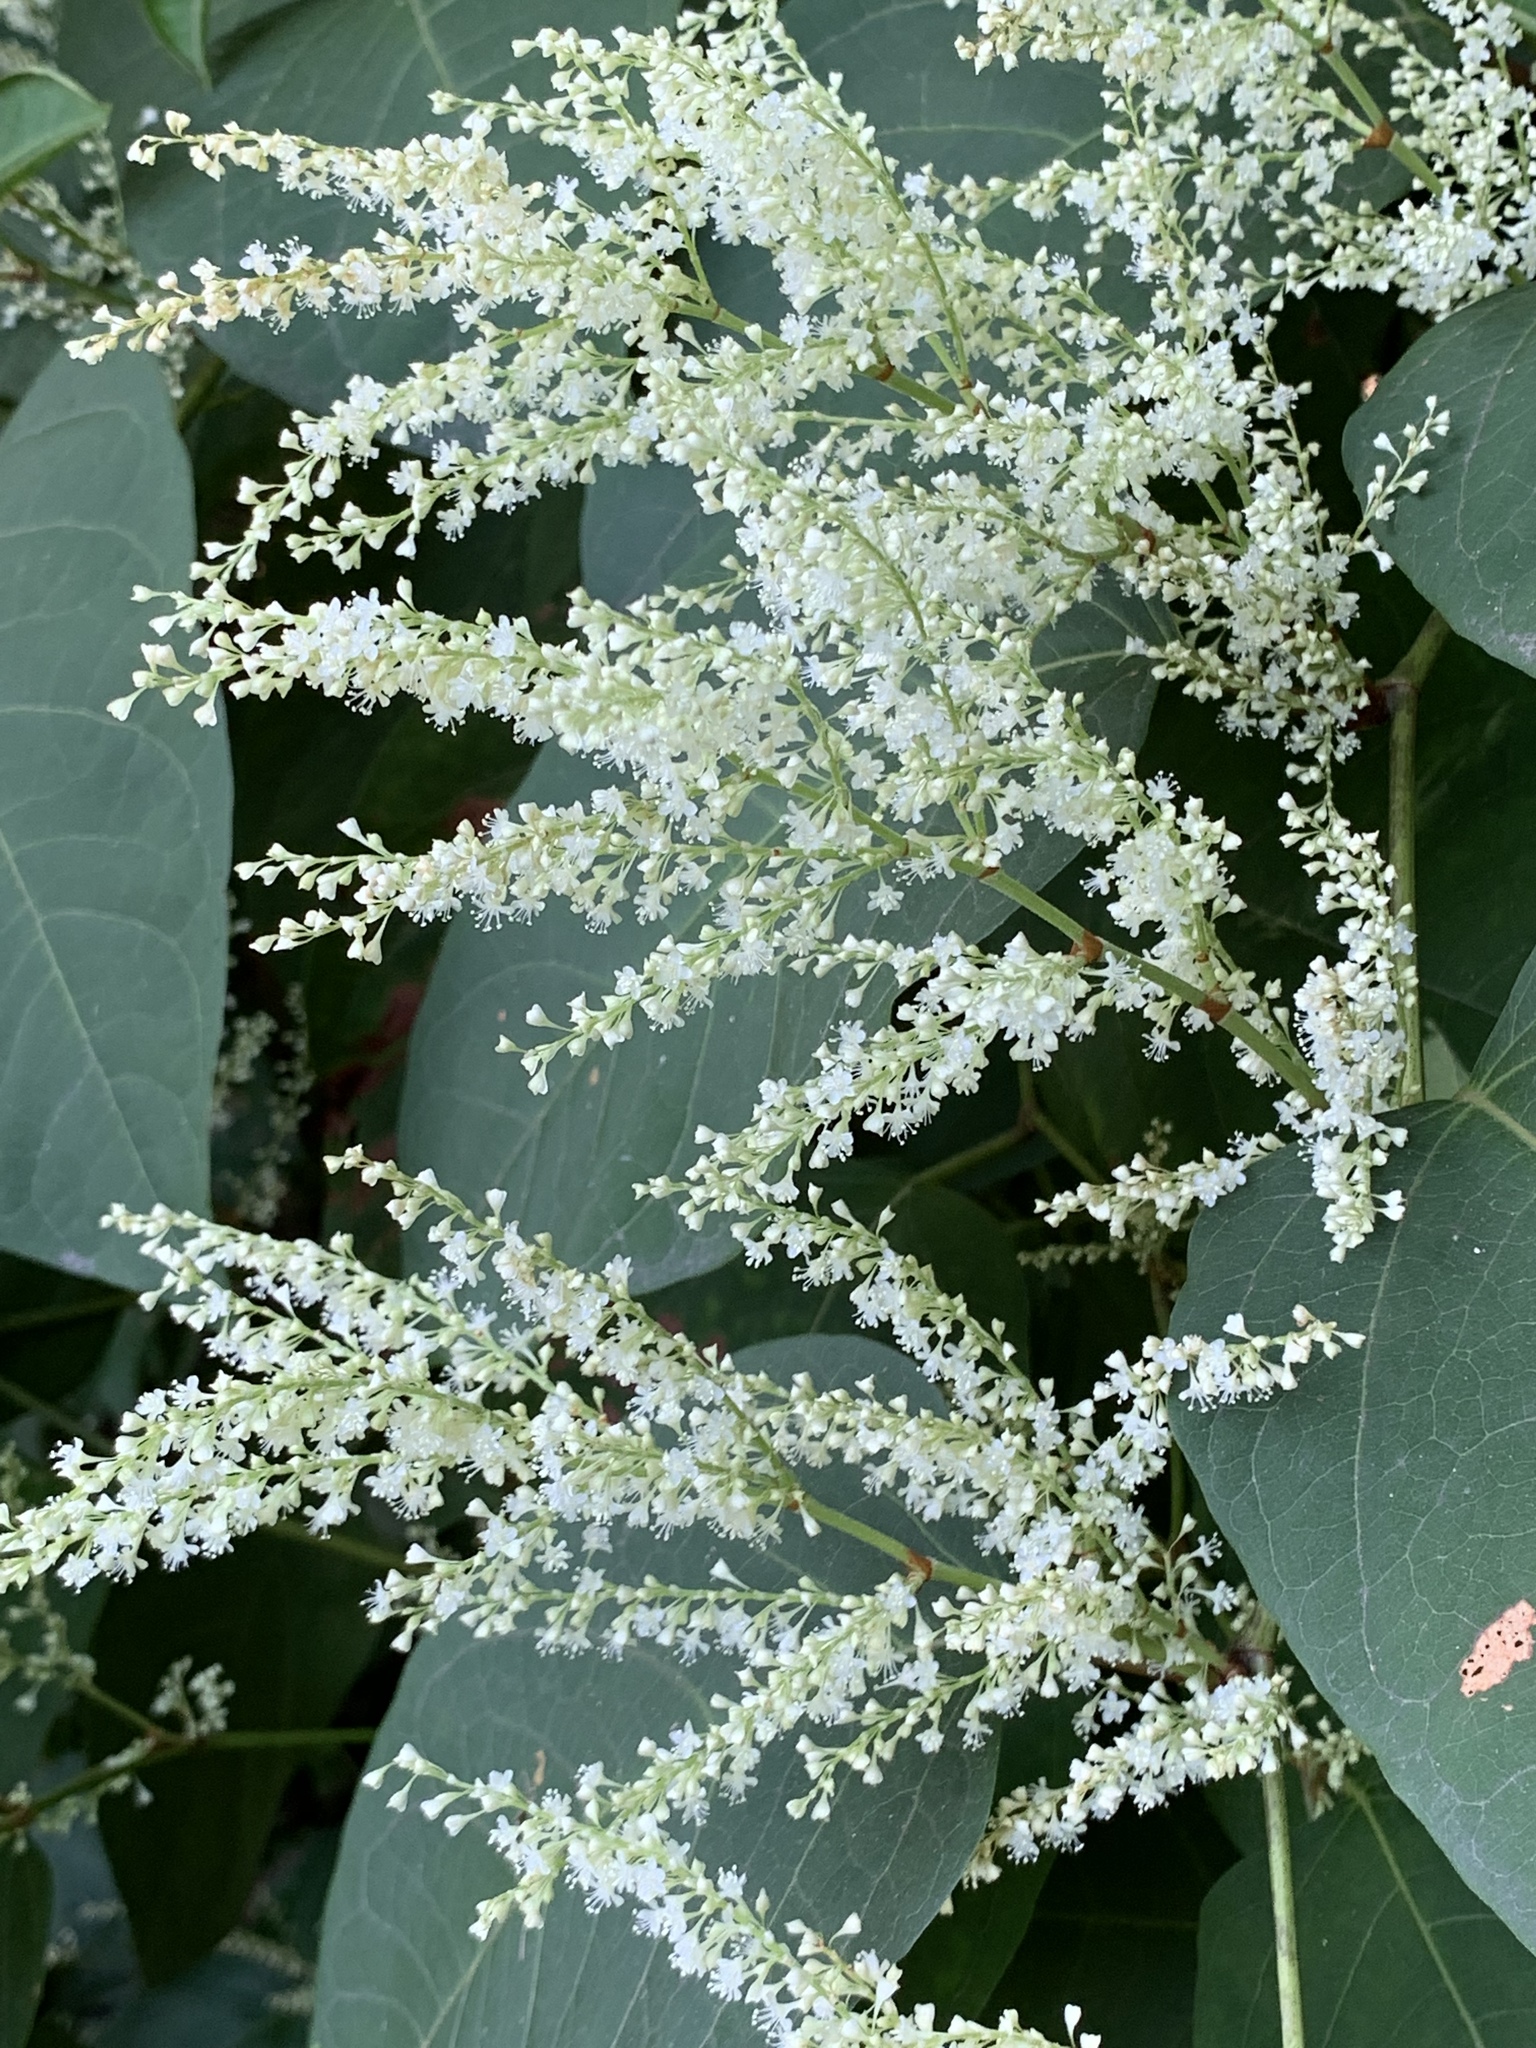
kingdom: Plantae
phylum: Tracheophyta
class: Magnoliopsida
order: Caryophyllales
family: Polygonaceae
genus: Reynoutria
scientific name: Reynoutria japonica
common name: Japanese knotweed
